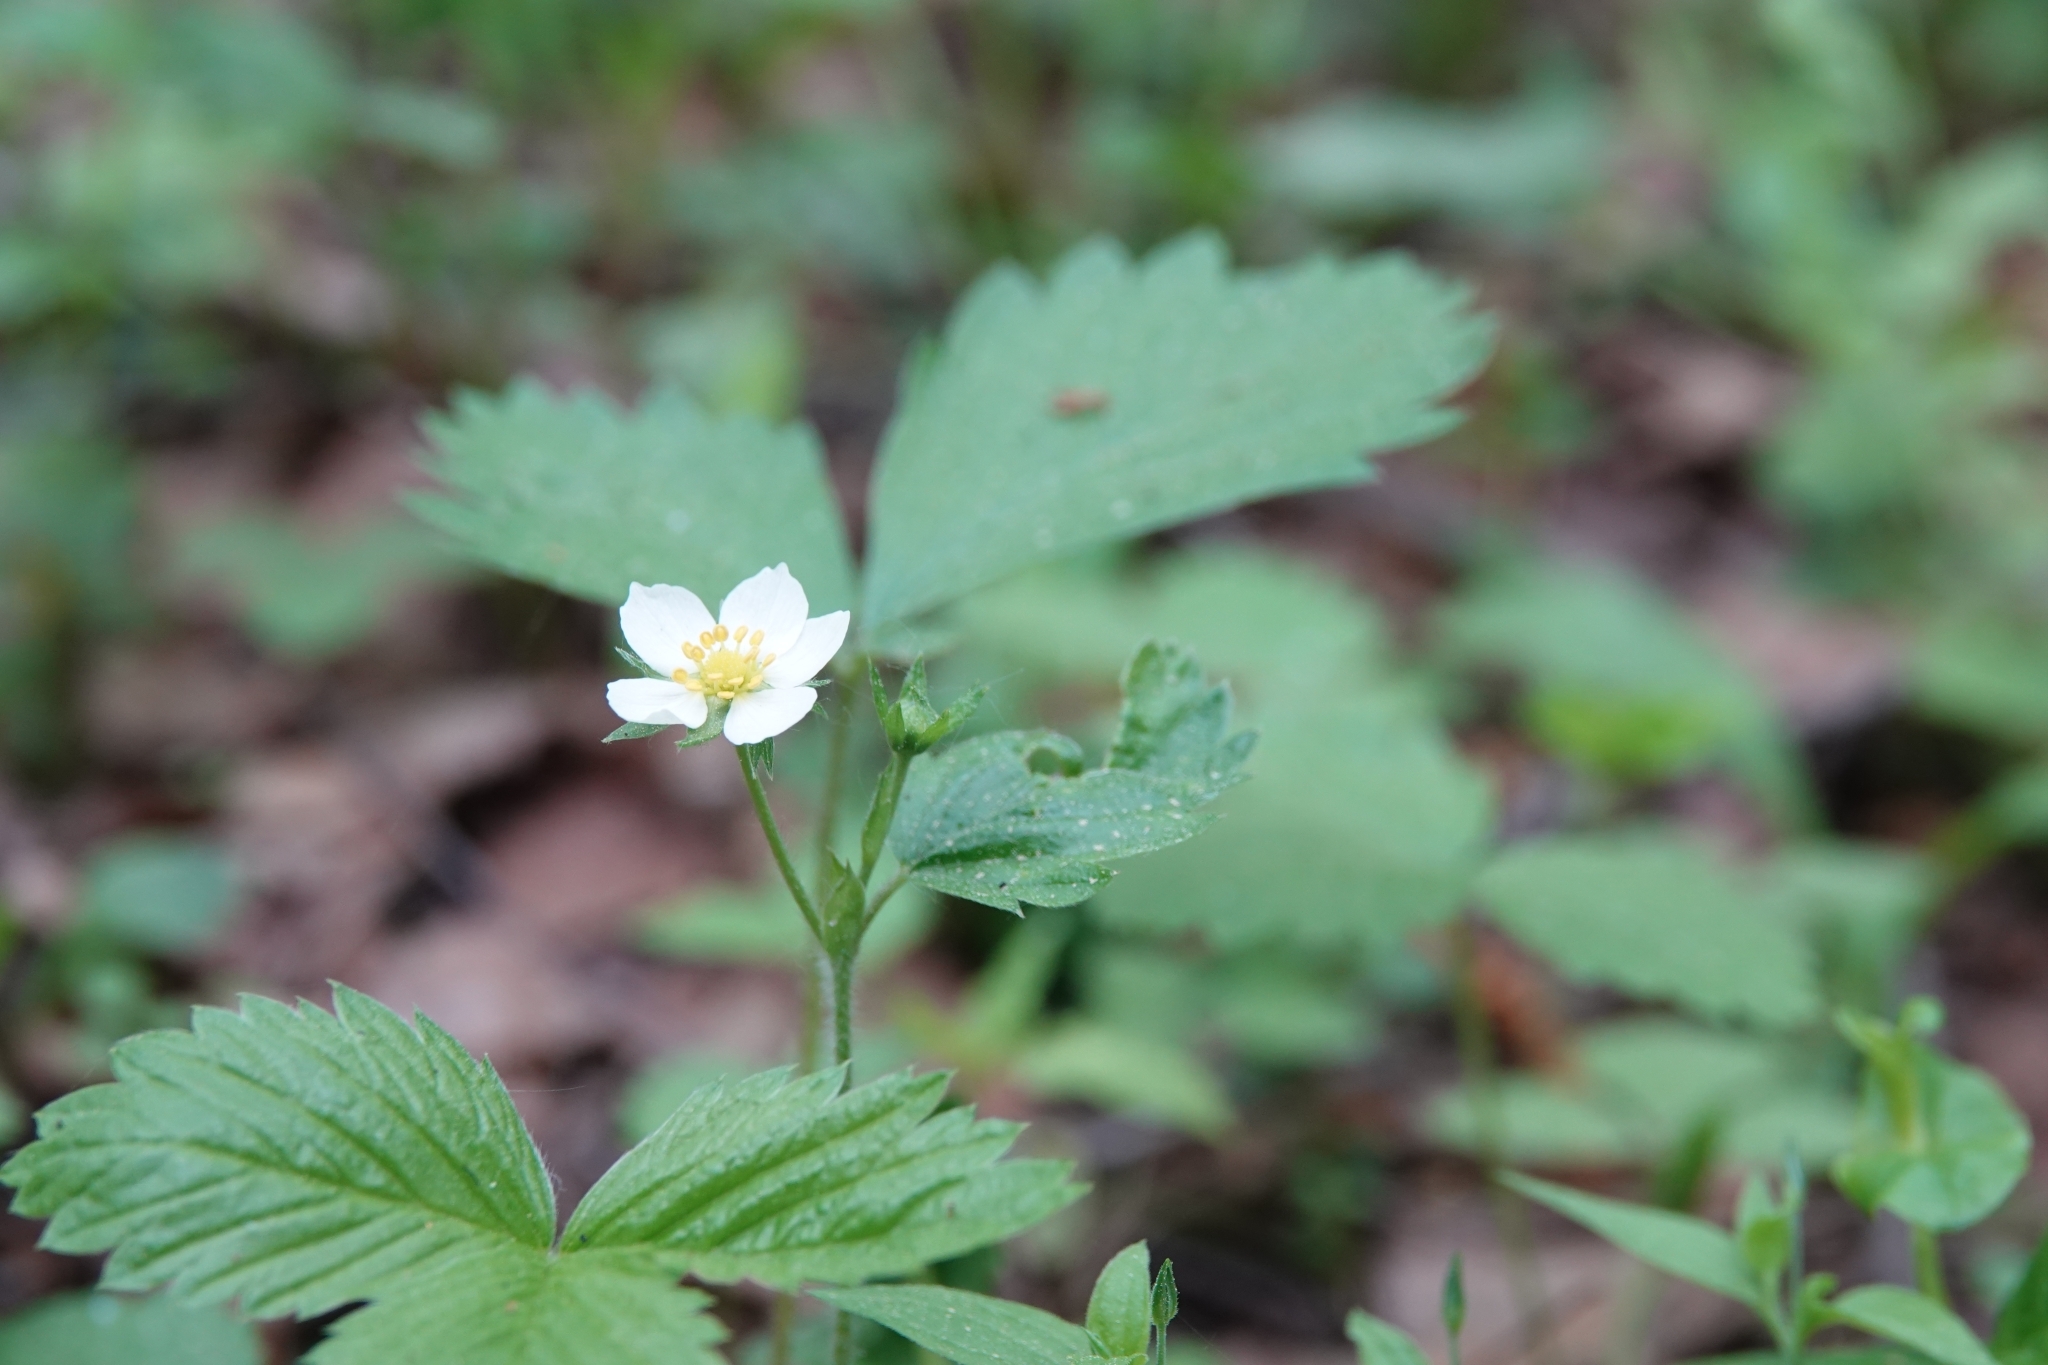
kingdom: Plantae
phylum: Tracheophyta
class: Magnoliopsida
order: Rosales
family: Rosaceae
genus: Fragaria
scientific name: Fragaria vesca
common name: Wild strawberry
